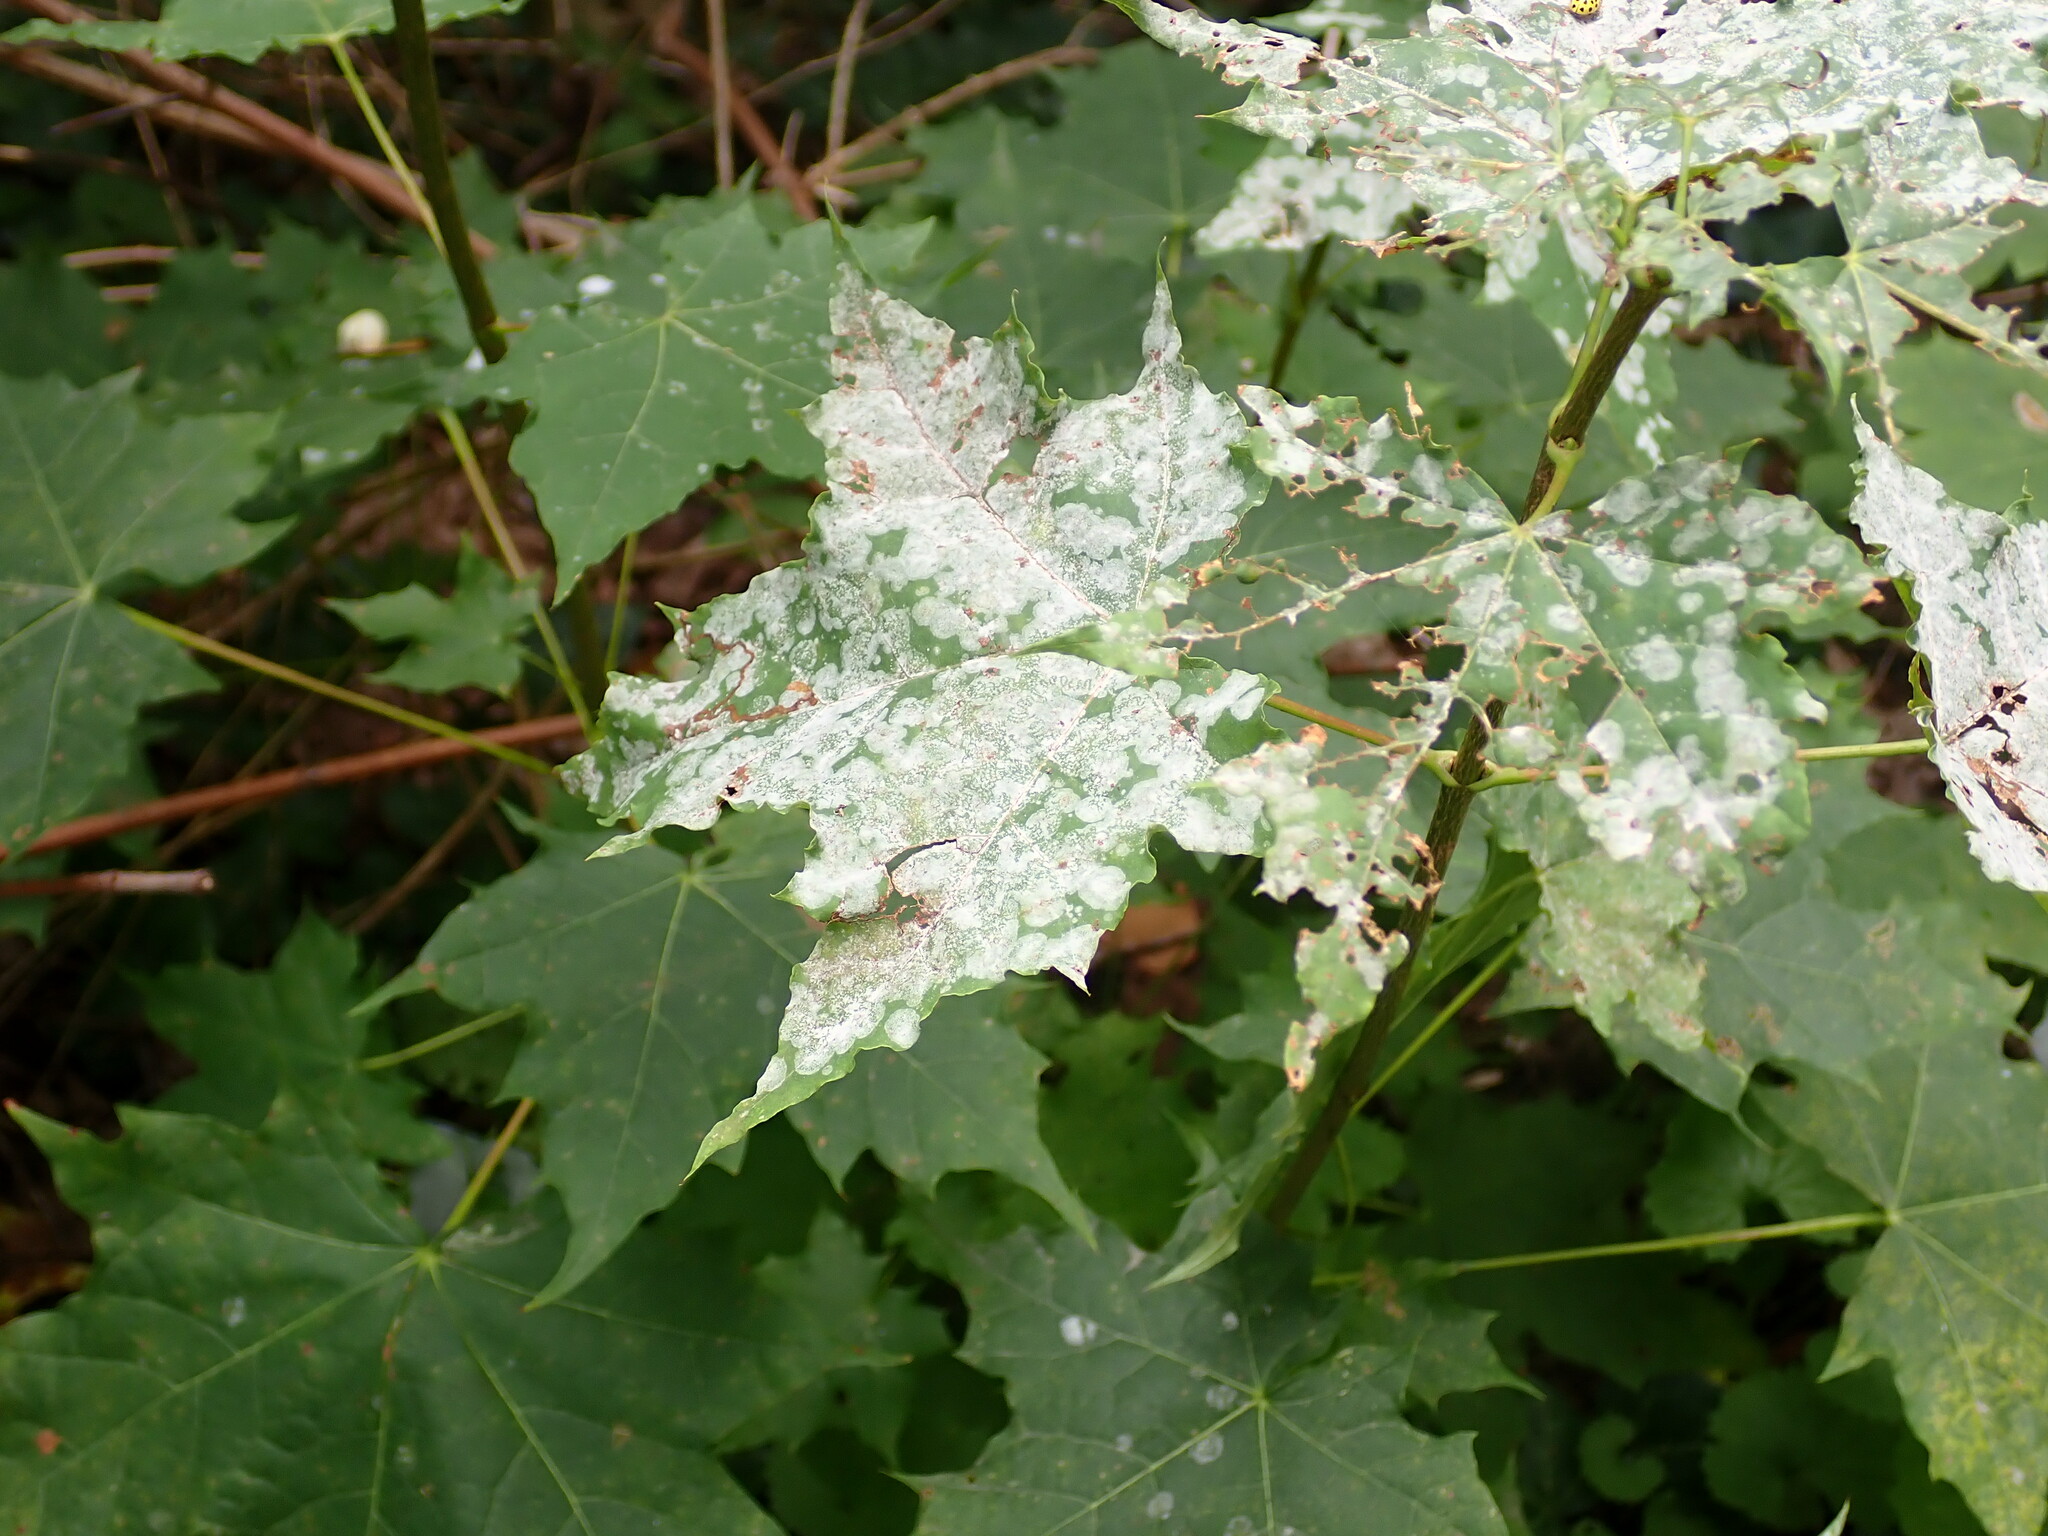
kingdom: Fungi
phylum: Ascomycota
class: Leotiomycetes
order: Helotiales
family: Erysiphaceae
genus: Sawadaea
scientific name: Sawadaea tulasnei
